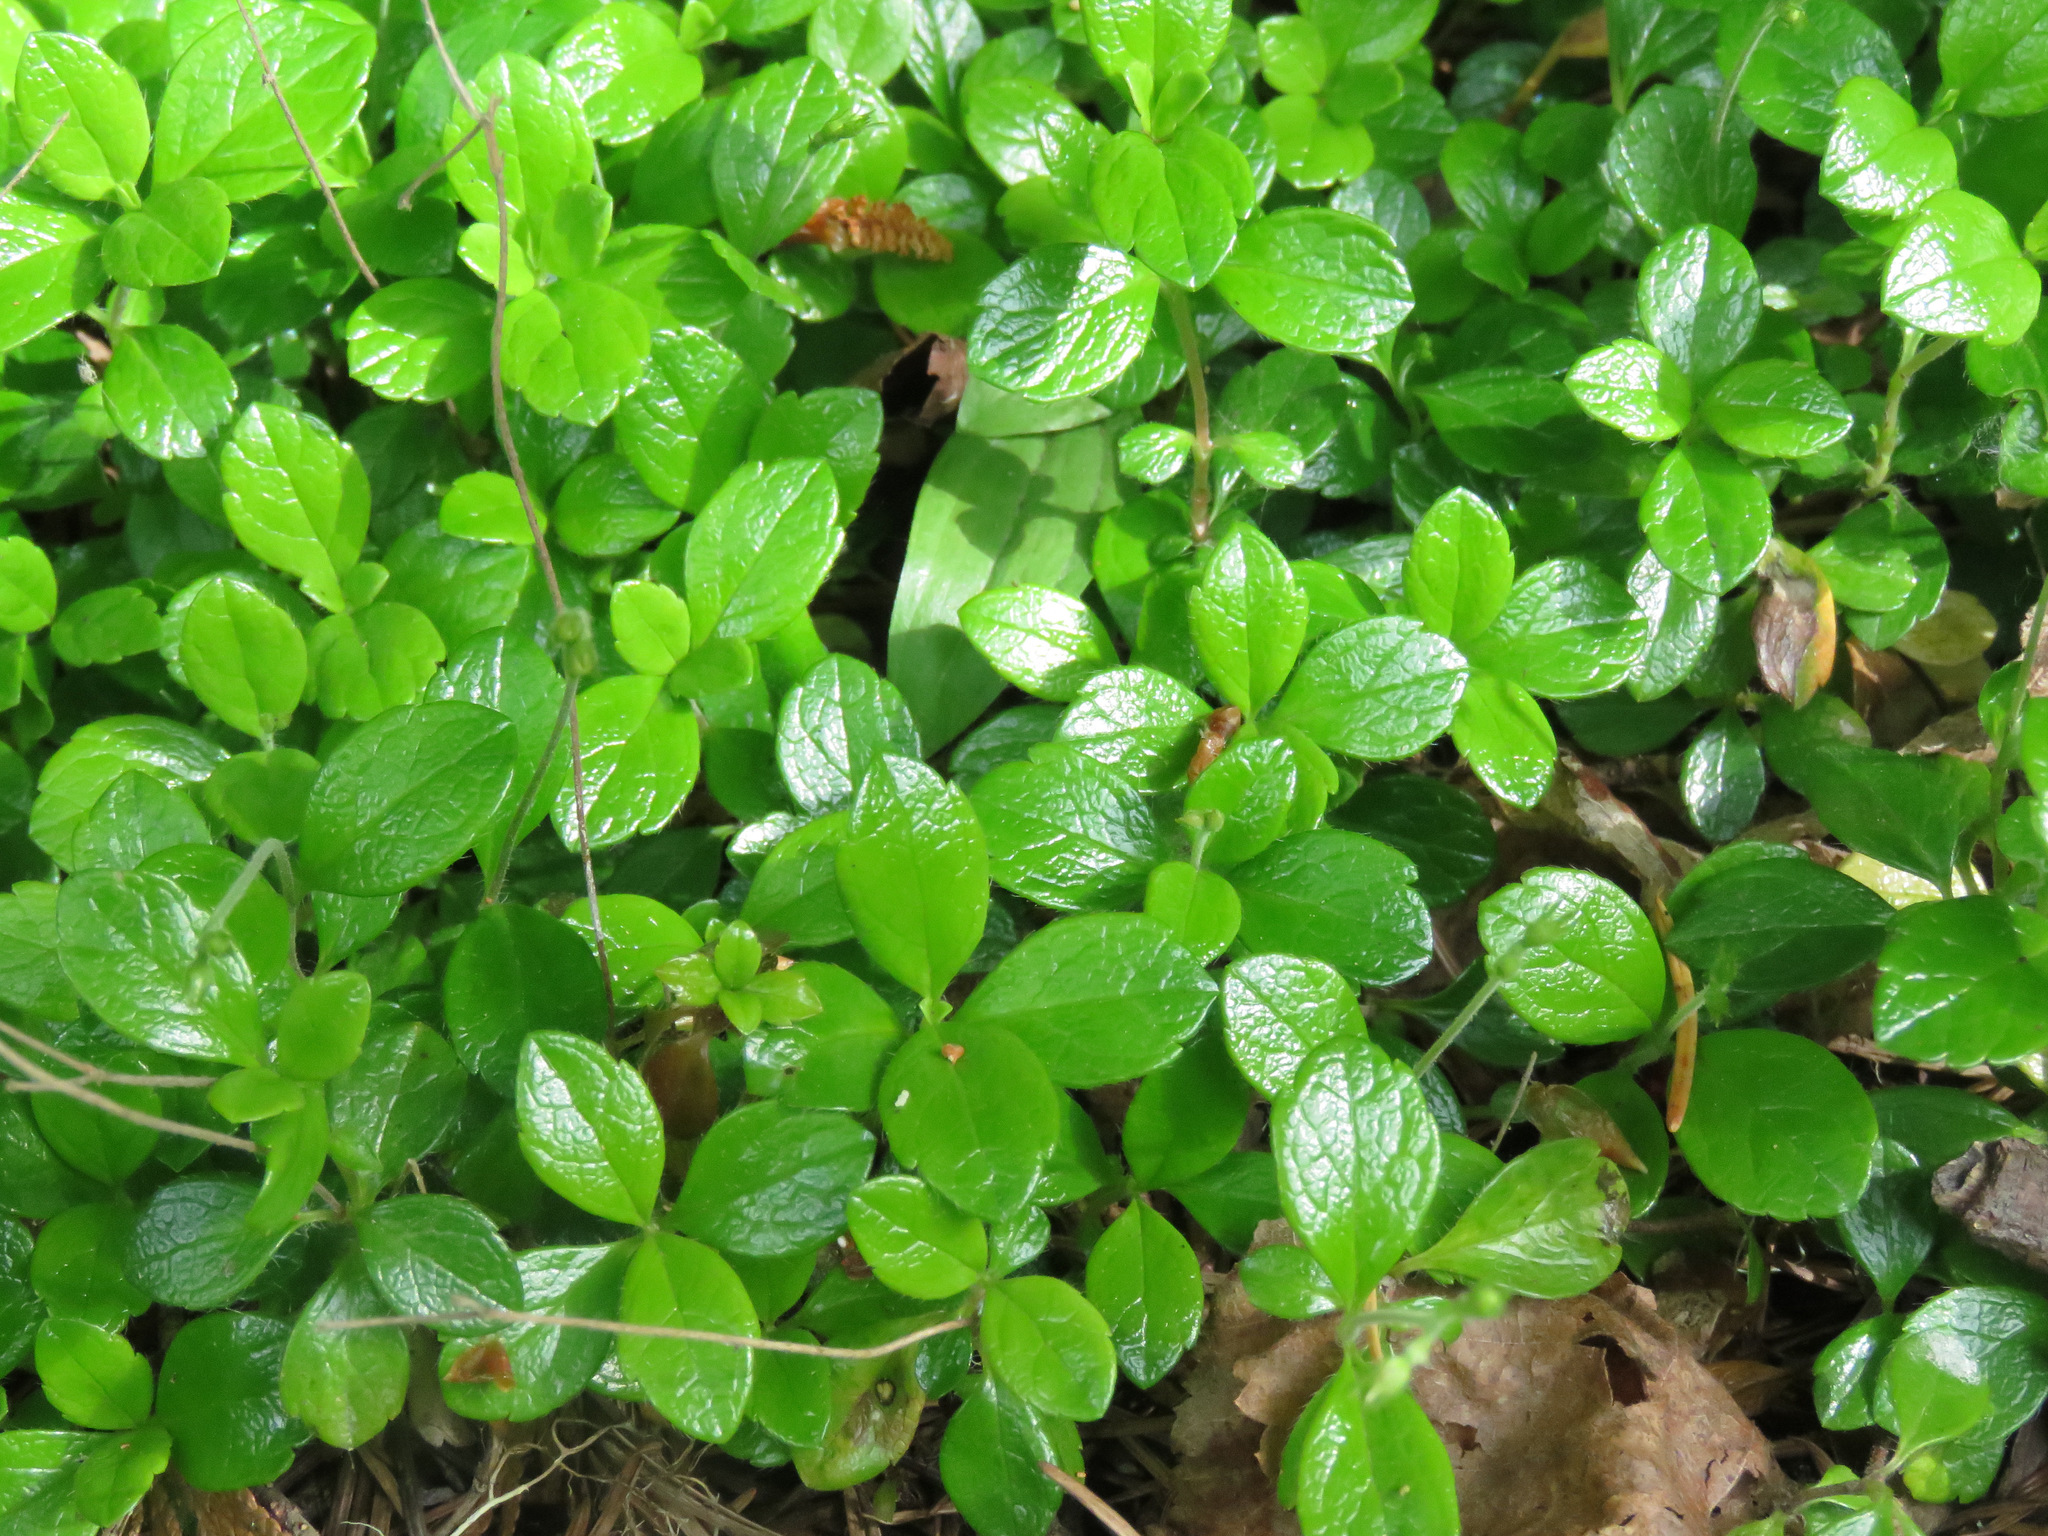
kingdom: Plantae
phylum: Tracheophyta
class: Magnoliopsida
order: Dipsacales
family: Caprifoliaceae
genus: Linnaea
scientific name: Linnaea borealis
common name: Twinflower
